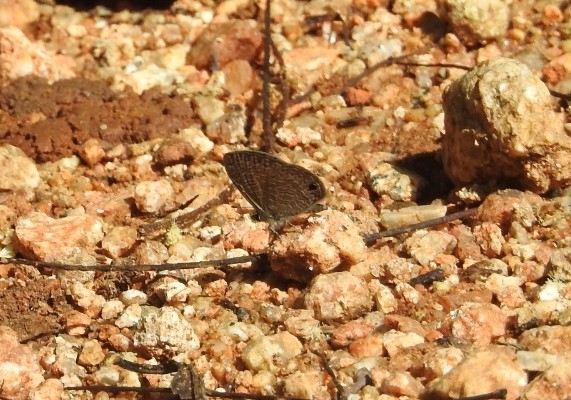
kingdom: Animalia
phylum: Arthropoda
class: Insecta
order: Lepidoptera
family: Lycaenidae
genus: Prosotas
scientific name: Prosotas dubiosa
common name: Tailless lineblue
